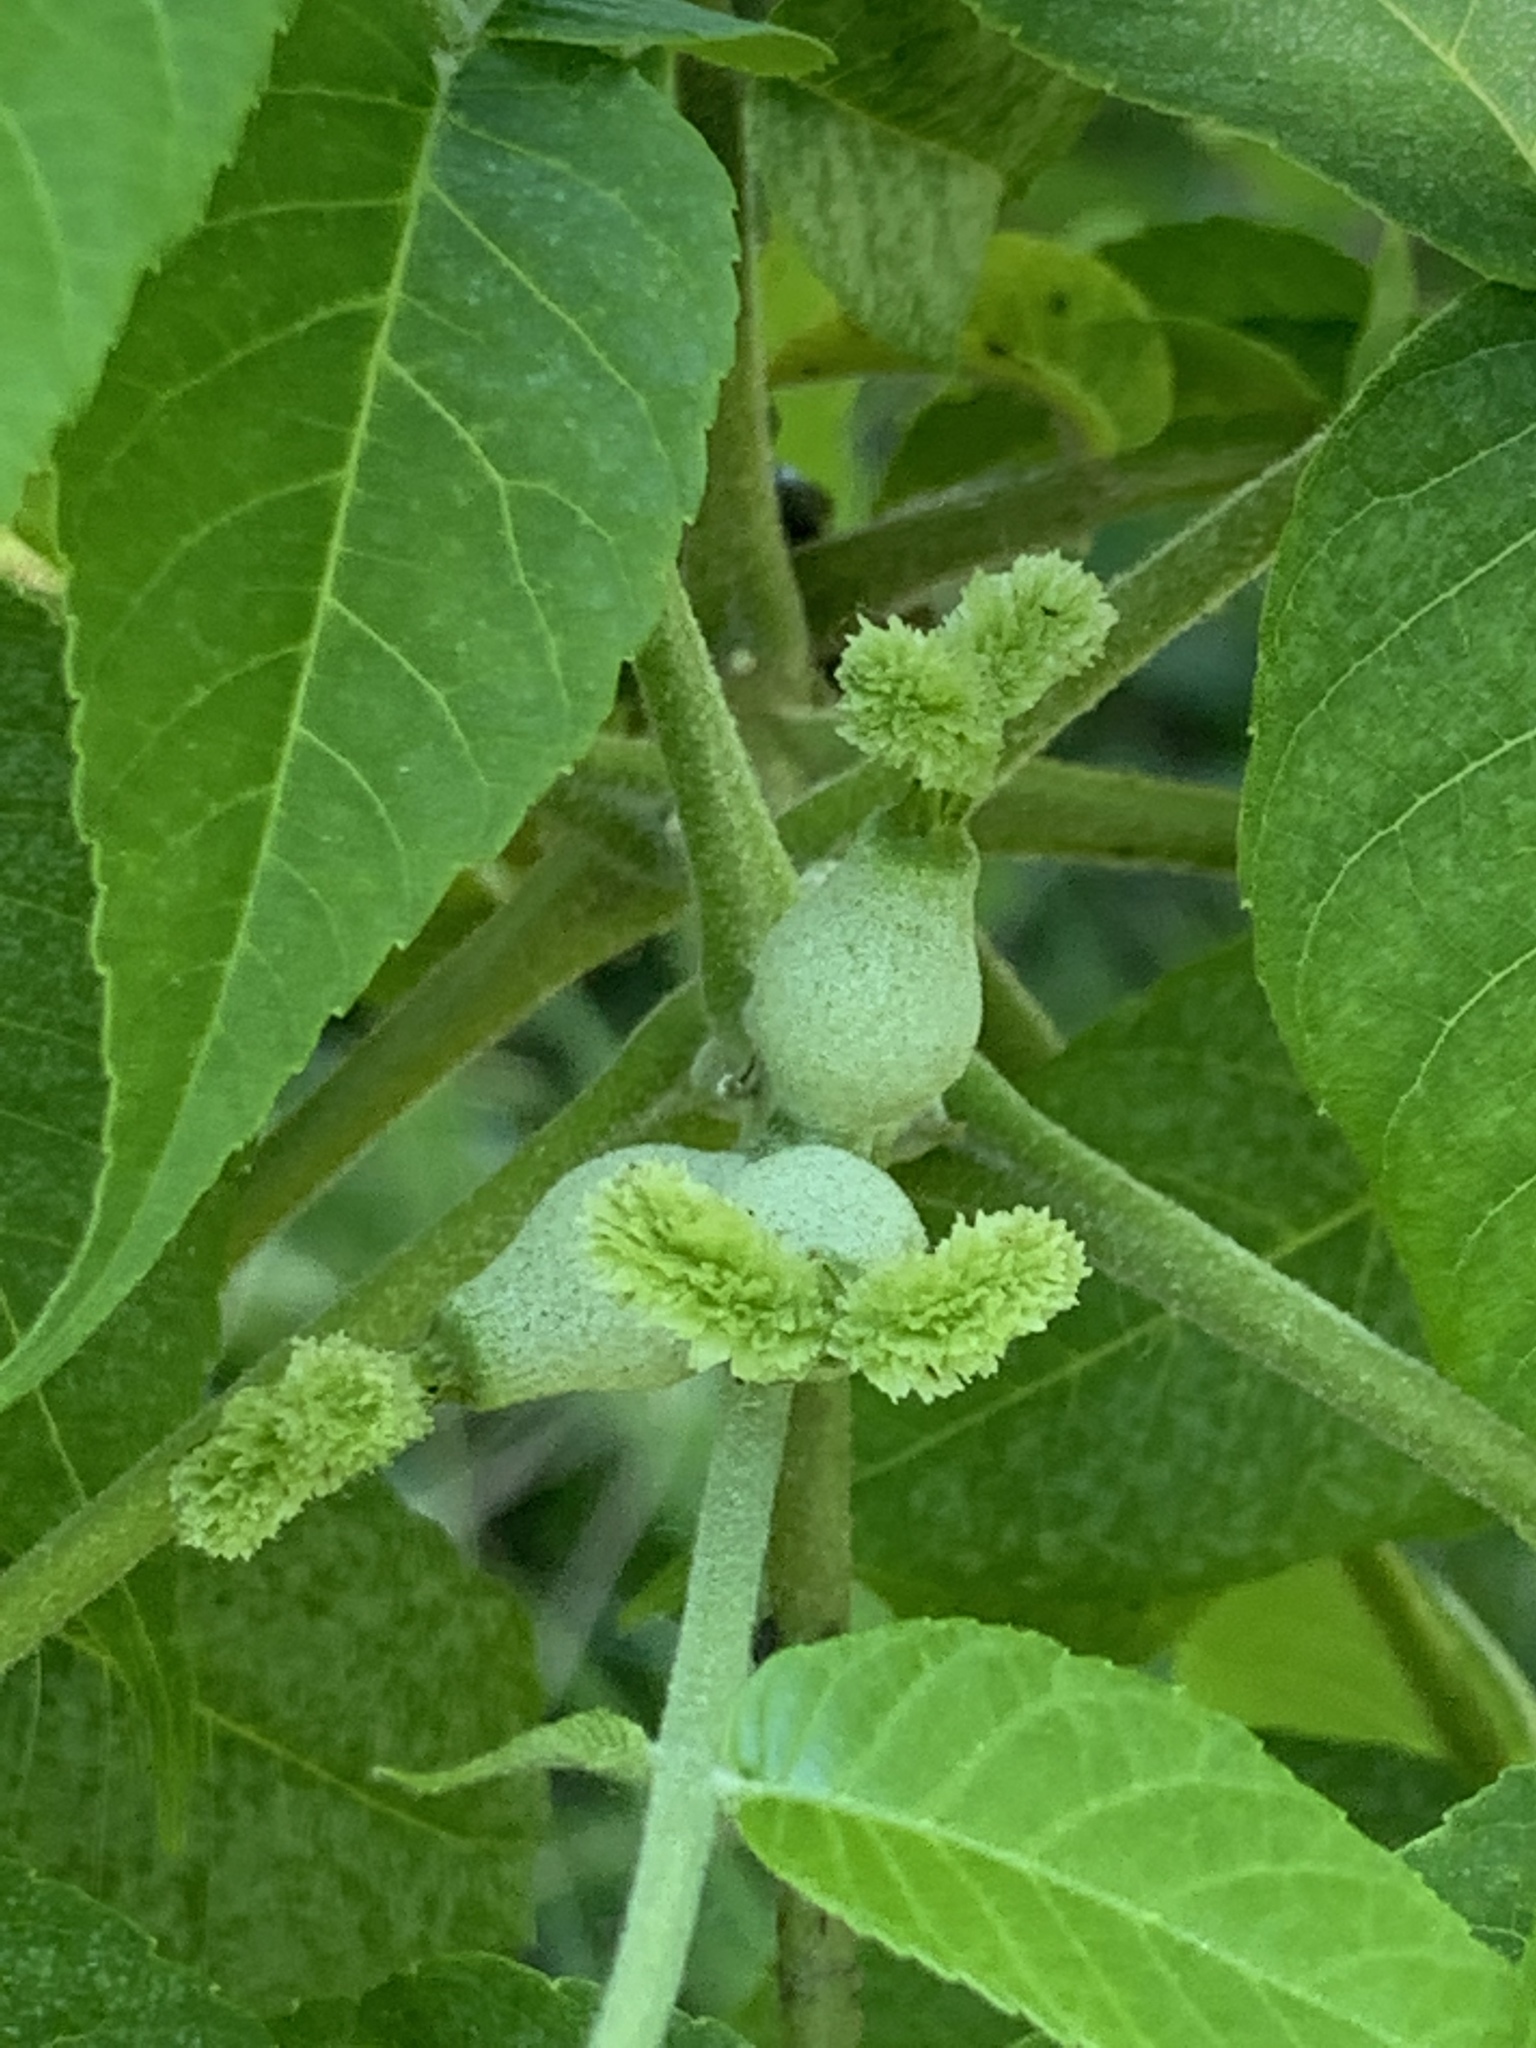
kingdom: Plantae
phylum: Tracheophyta
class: Magnoliopsida
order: Fagales
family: Juglandaceae
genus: Juglans
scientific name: Juglans nigra
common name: Black walnut
